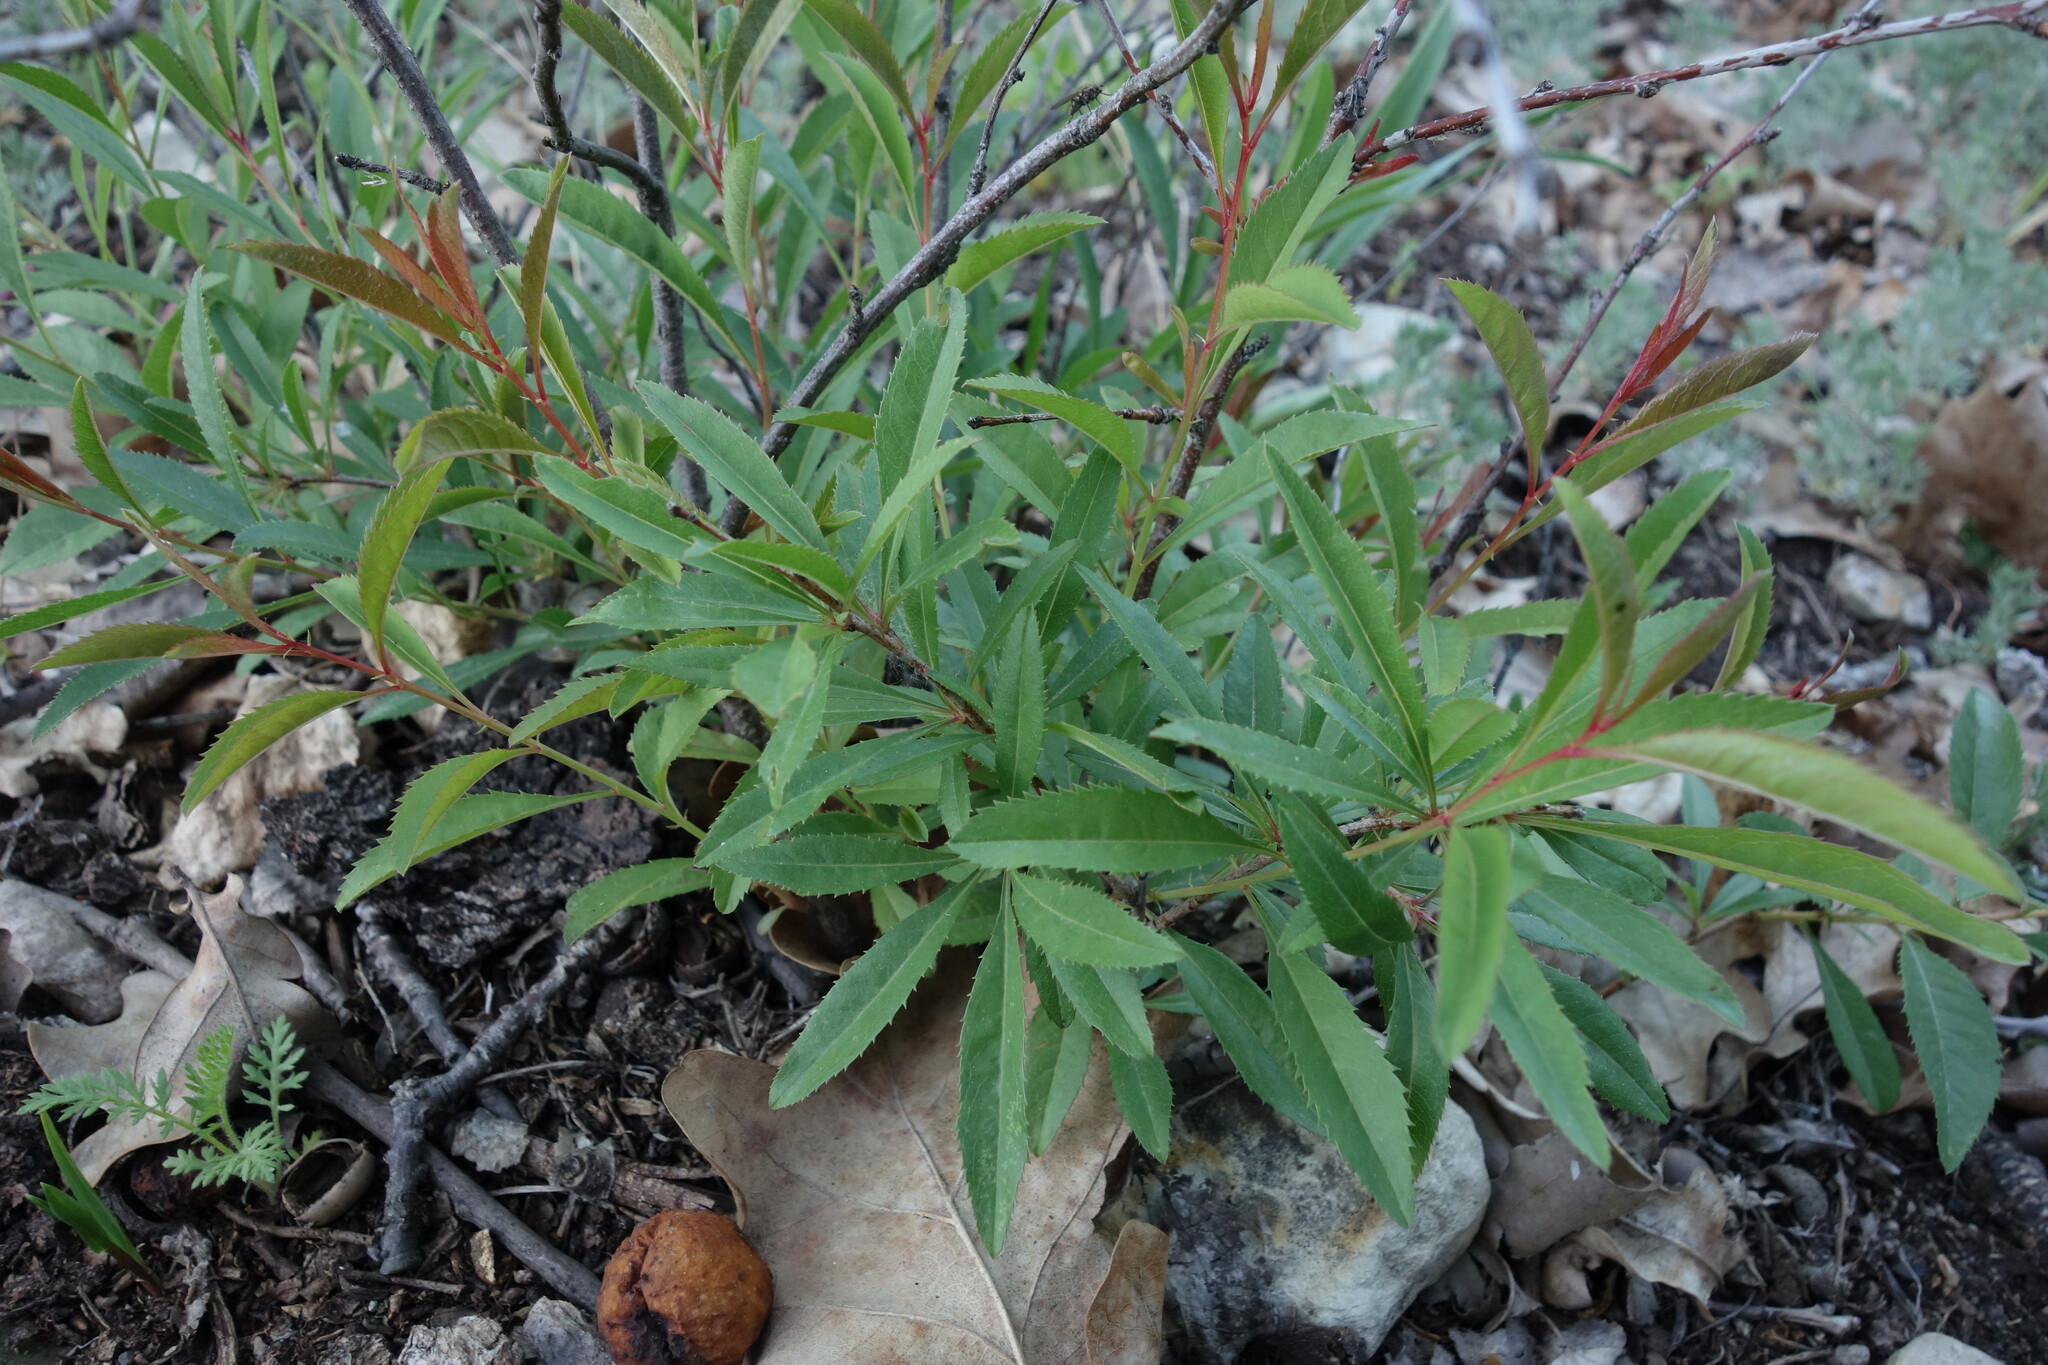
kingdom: Plantae
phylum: Tracheophyta
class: Magnoliopsida
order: Rosales
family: Rosaceae
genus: Prunus
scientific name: Prunus tenella
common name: Dwarf russian almond
